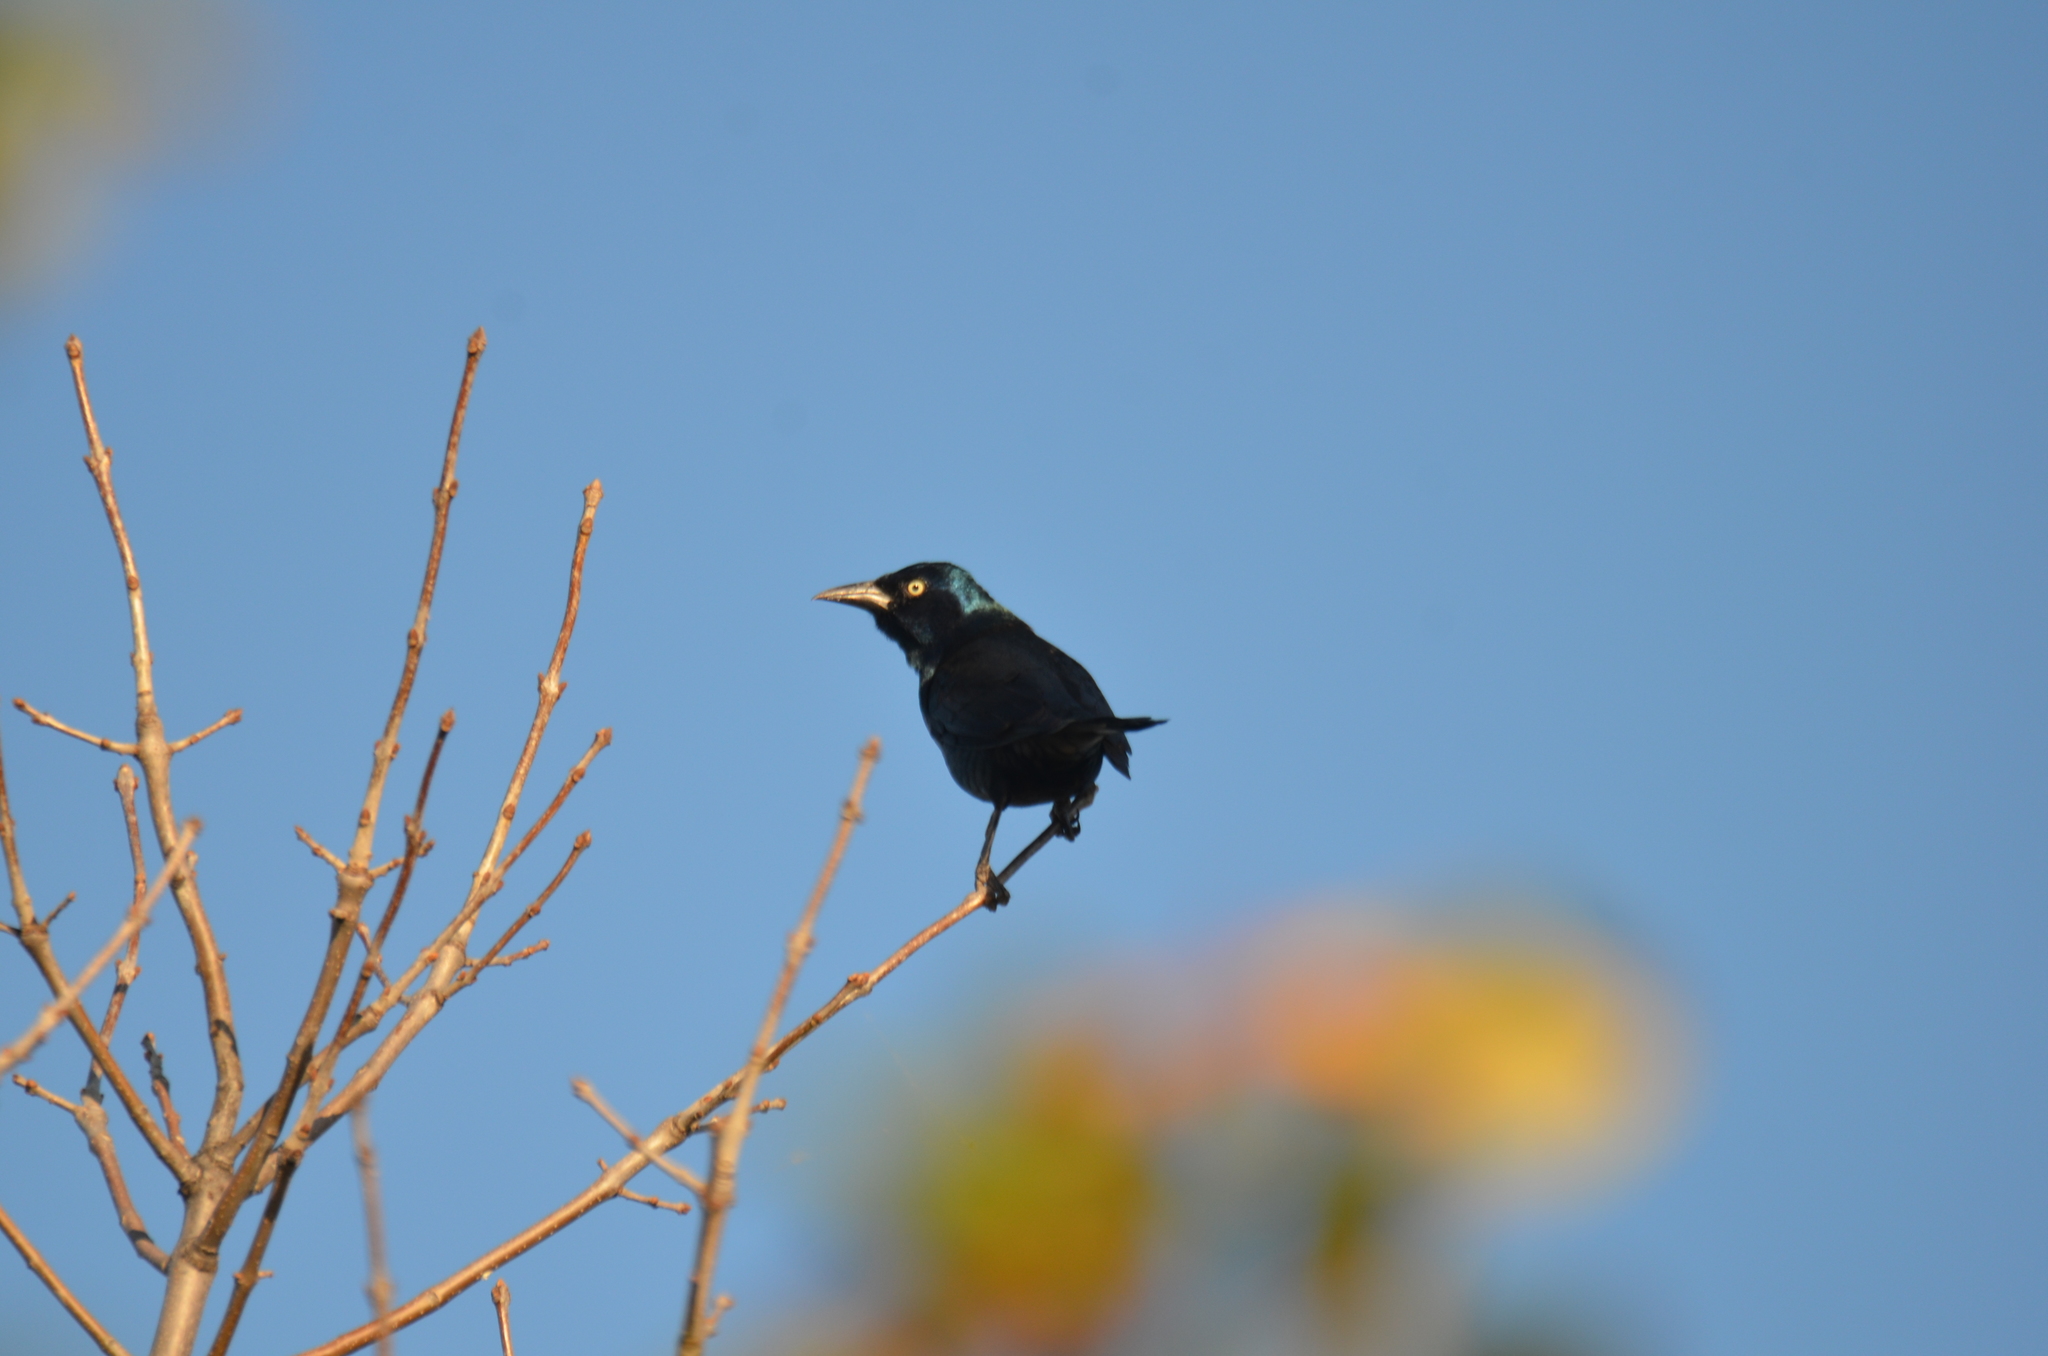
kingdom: Animalia
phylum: Chordata
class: Aves
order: Passeriformes
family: Icteridae
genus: Quiscalus
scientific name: Quiscalus quiscula
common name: Common grackle
